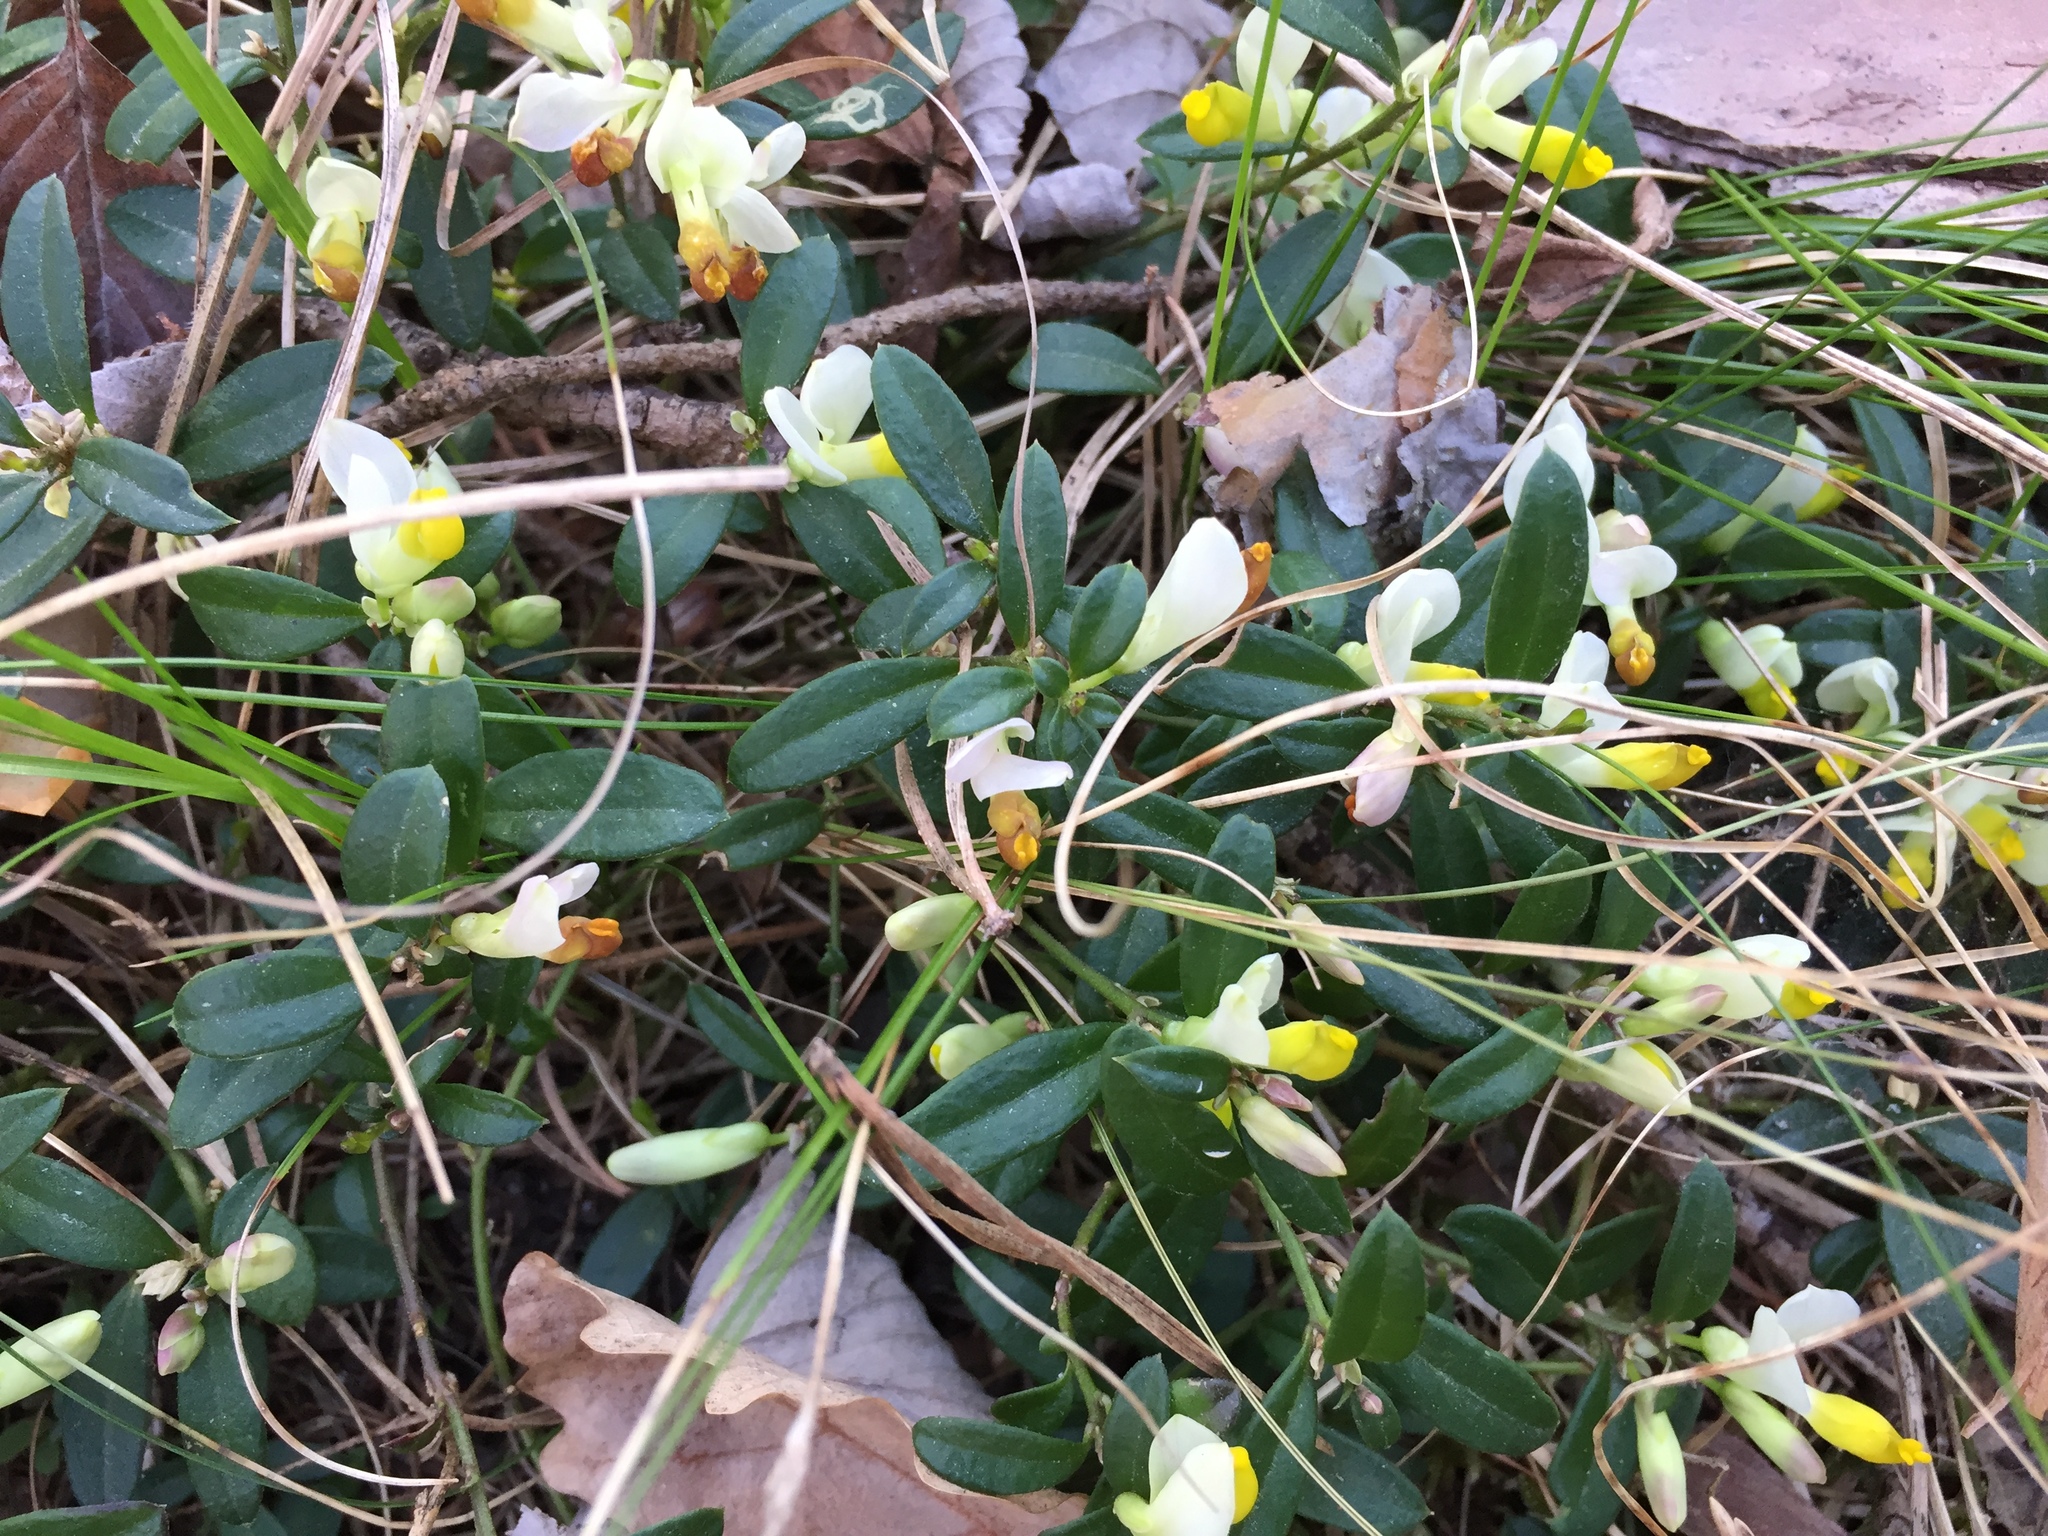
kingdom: Plantae
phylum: Tracheophyta
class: Magnoliopsida
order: Fabales
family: Polygalaceae
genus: Polygaloides
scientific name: Polygaloides chamaebuxus
